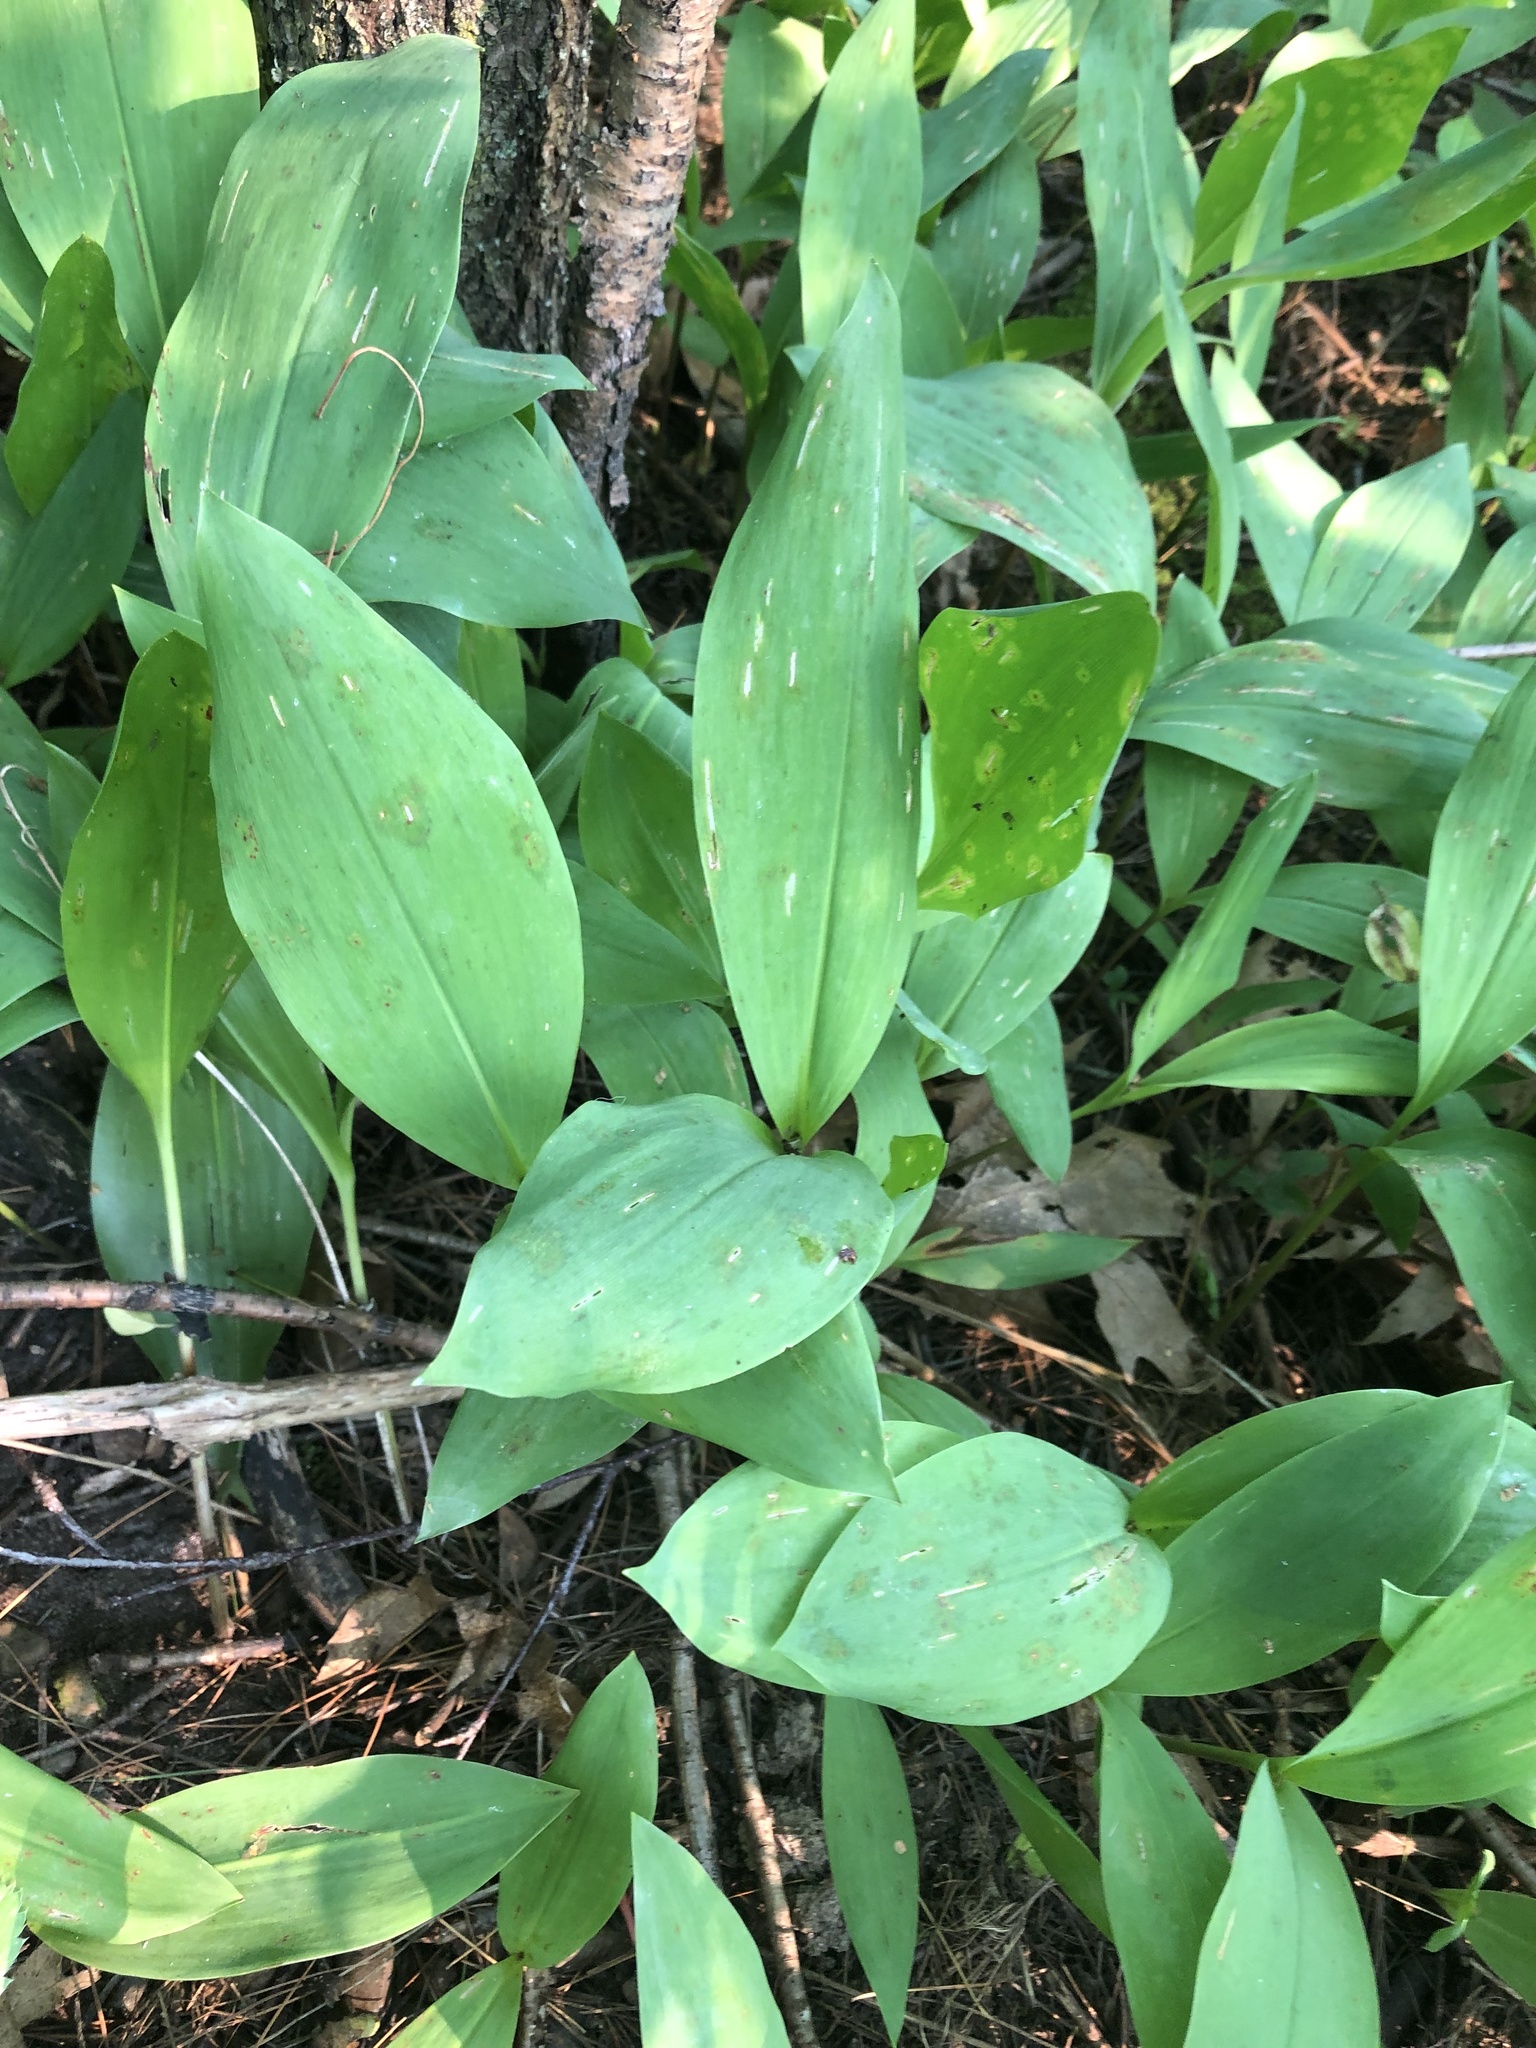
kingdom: Plantae
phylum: Tracheophyta
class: Liliopsida
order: Asparagales
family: Asparagaceae
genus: Convallaria
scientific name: Convallaria majalis
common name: Lily-of-the-valley
